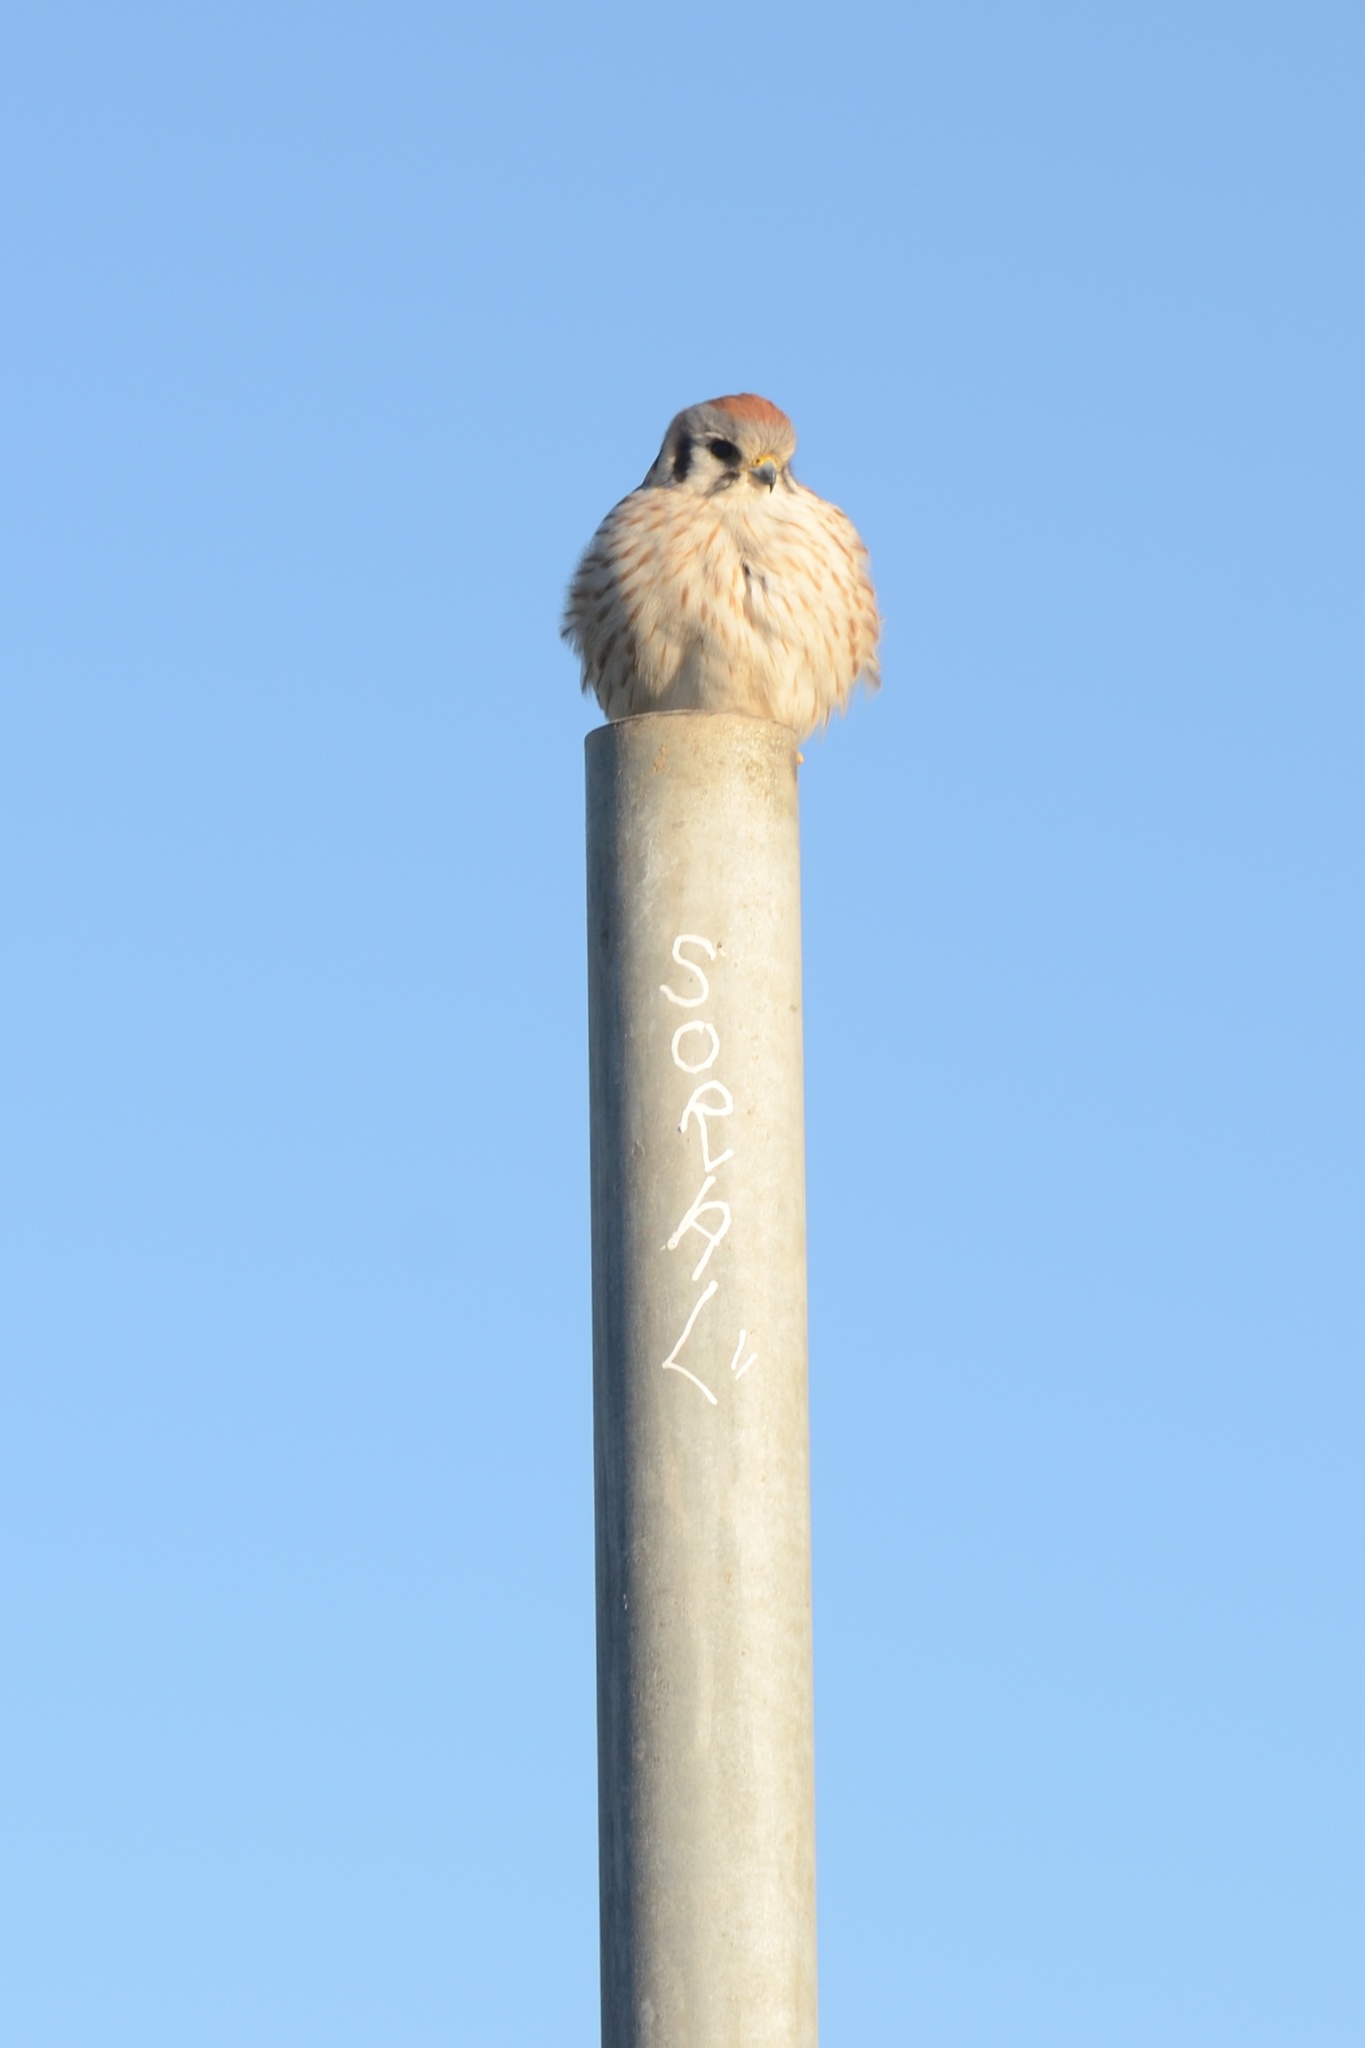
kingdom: Animalia
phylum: Chordata
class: Aves
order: Falconiformes
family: Falconidae
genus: Falco
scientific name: Falco sparverius
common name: American kestrel
